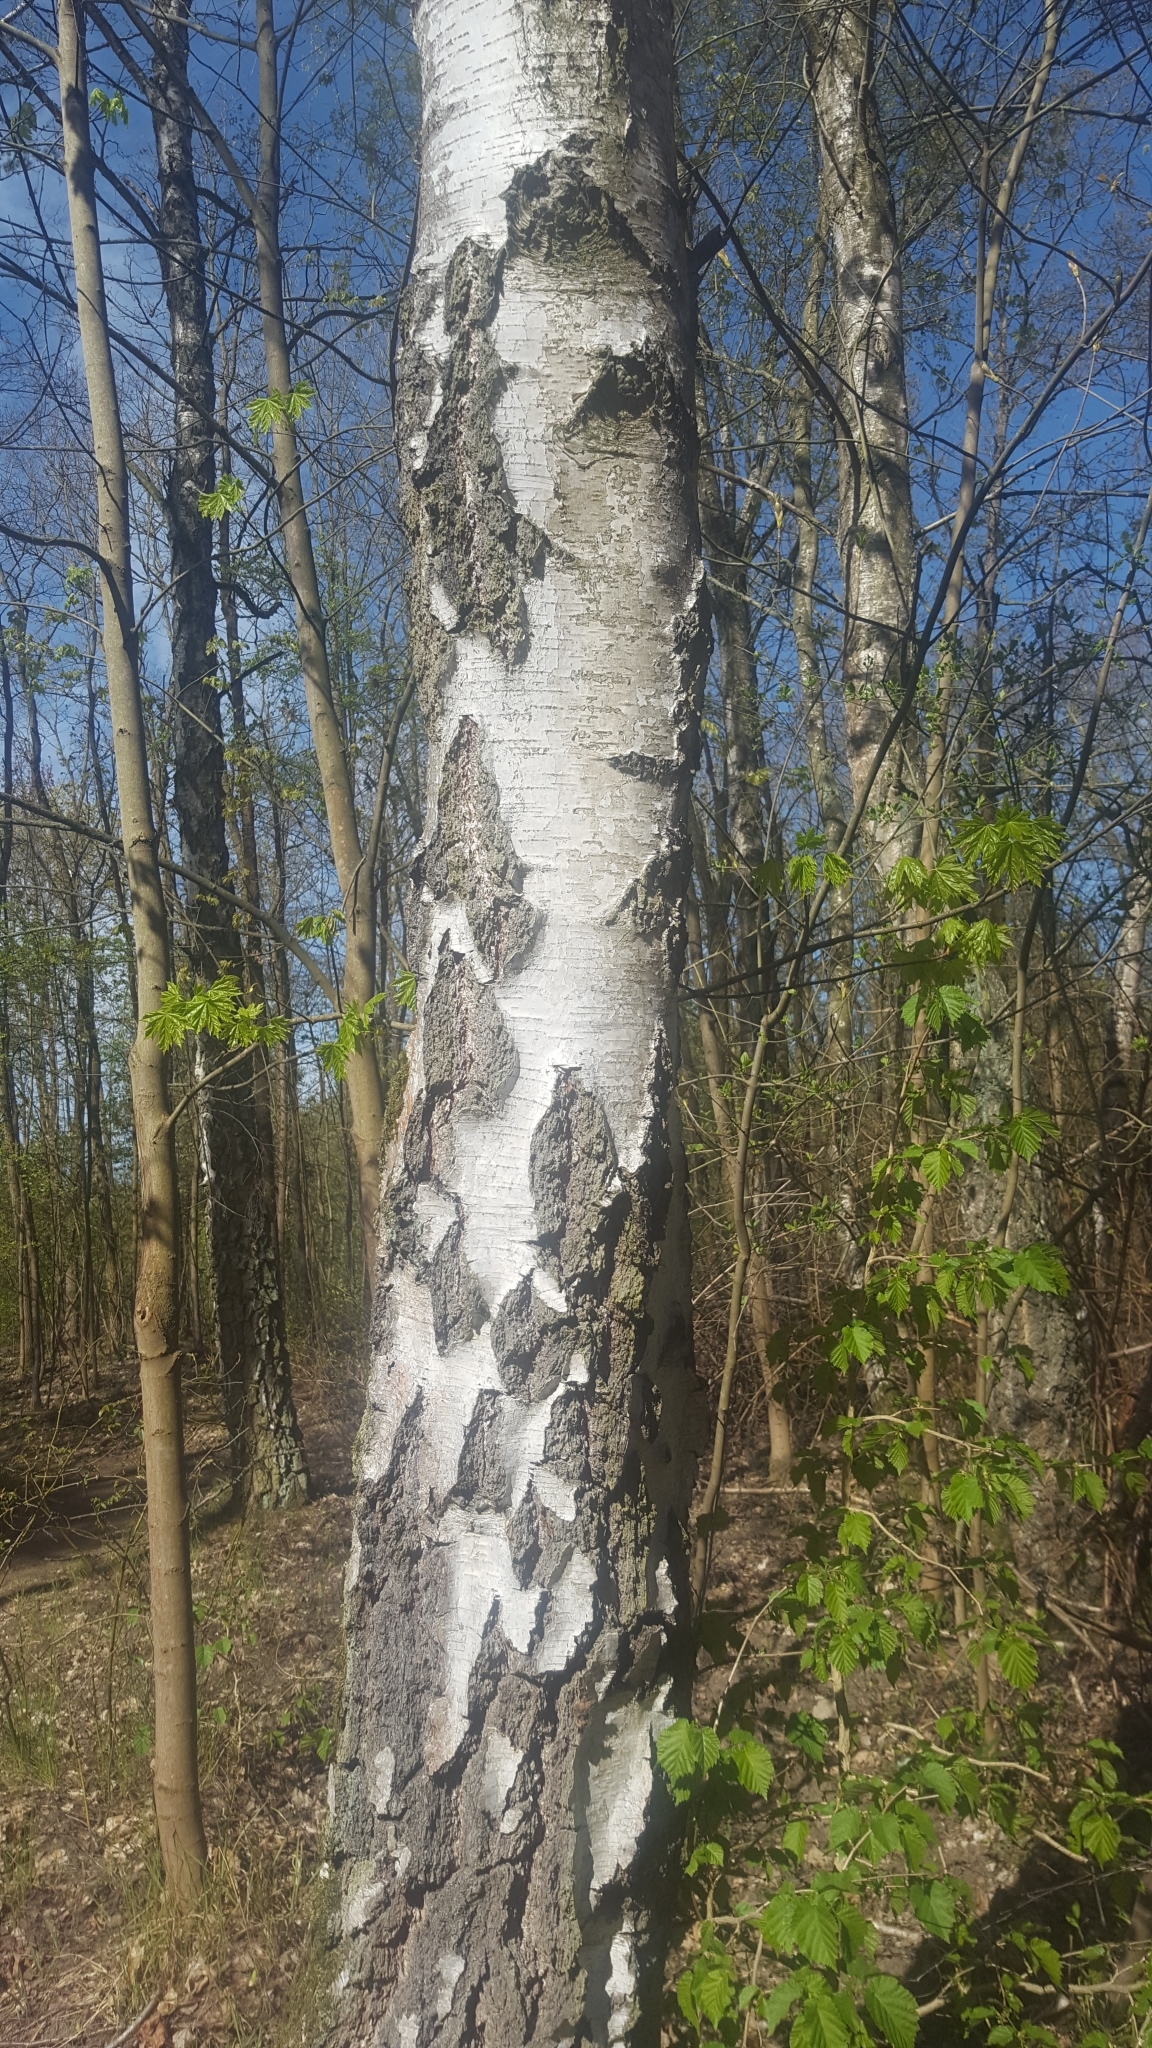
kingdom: Plantae
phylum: Tracheophyta
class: Magnoliopsida
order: Fagales
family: Betulaceae
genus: Betula
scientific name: Betula pendula
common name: Silver birch
